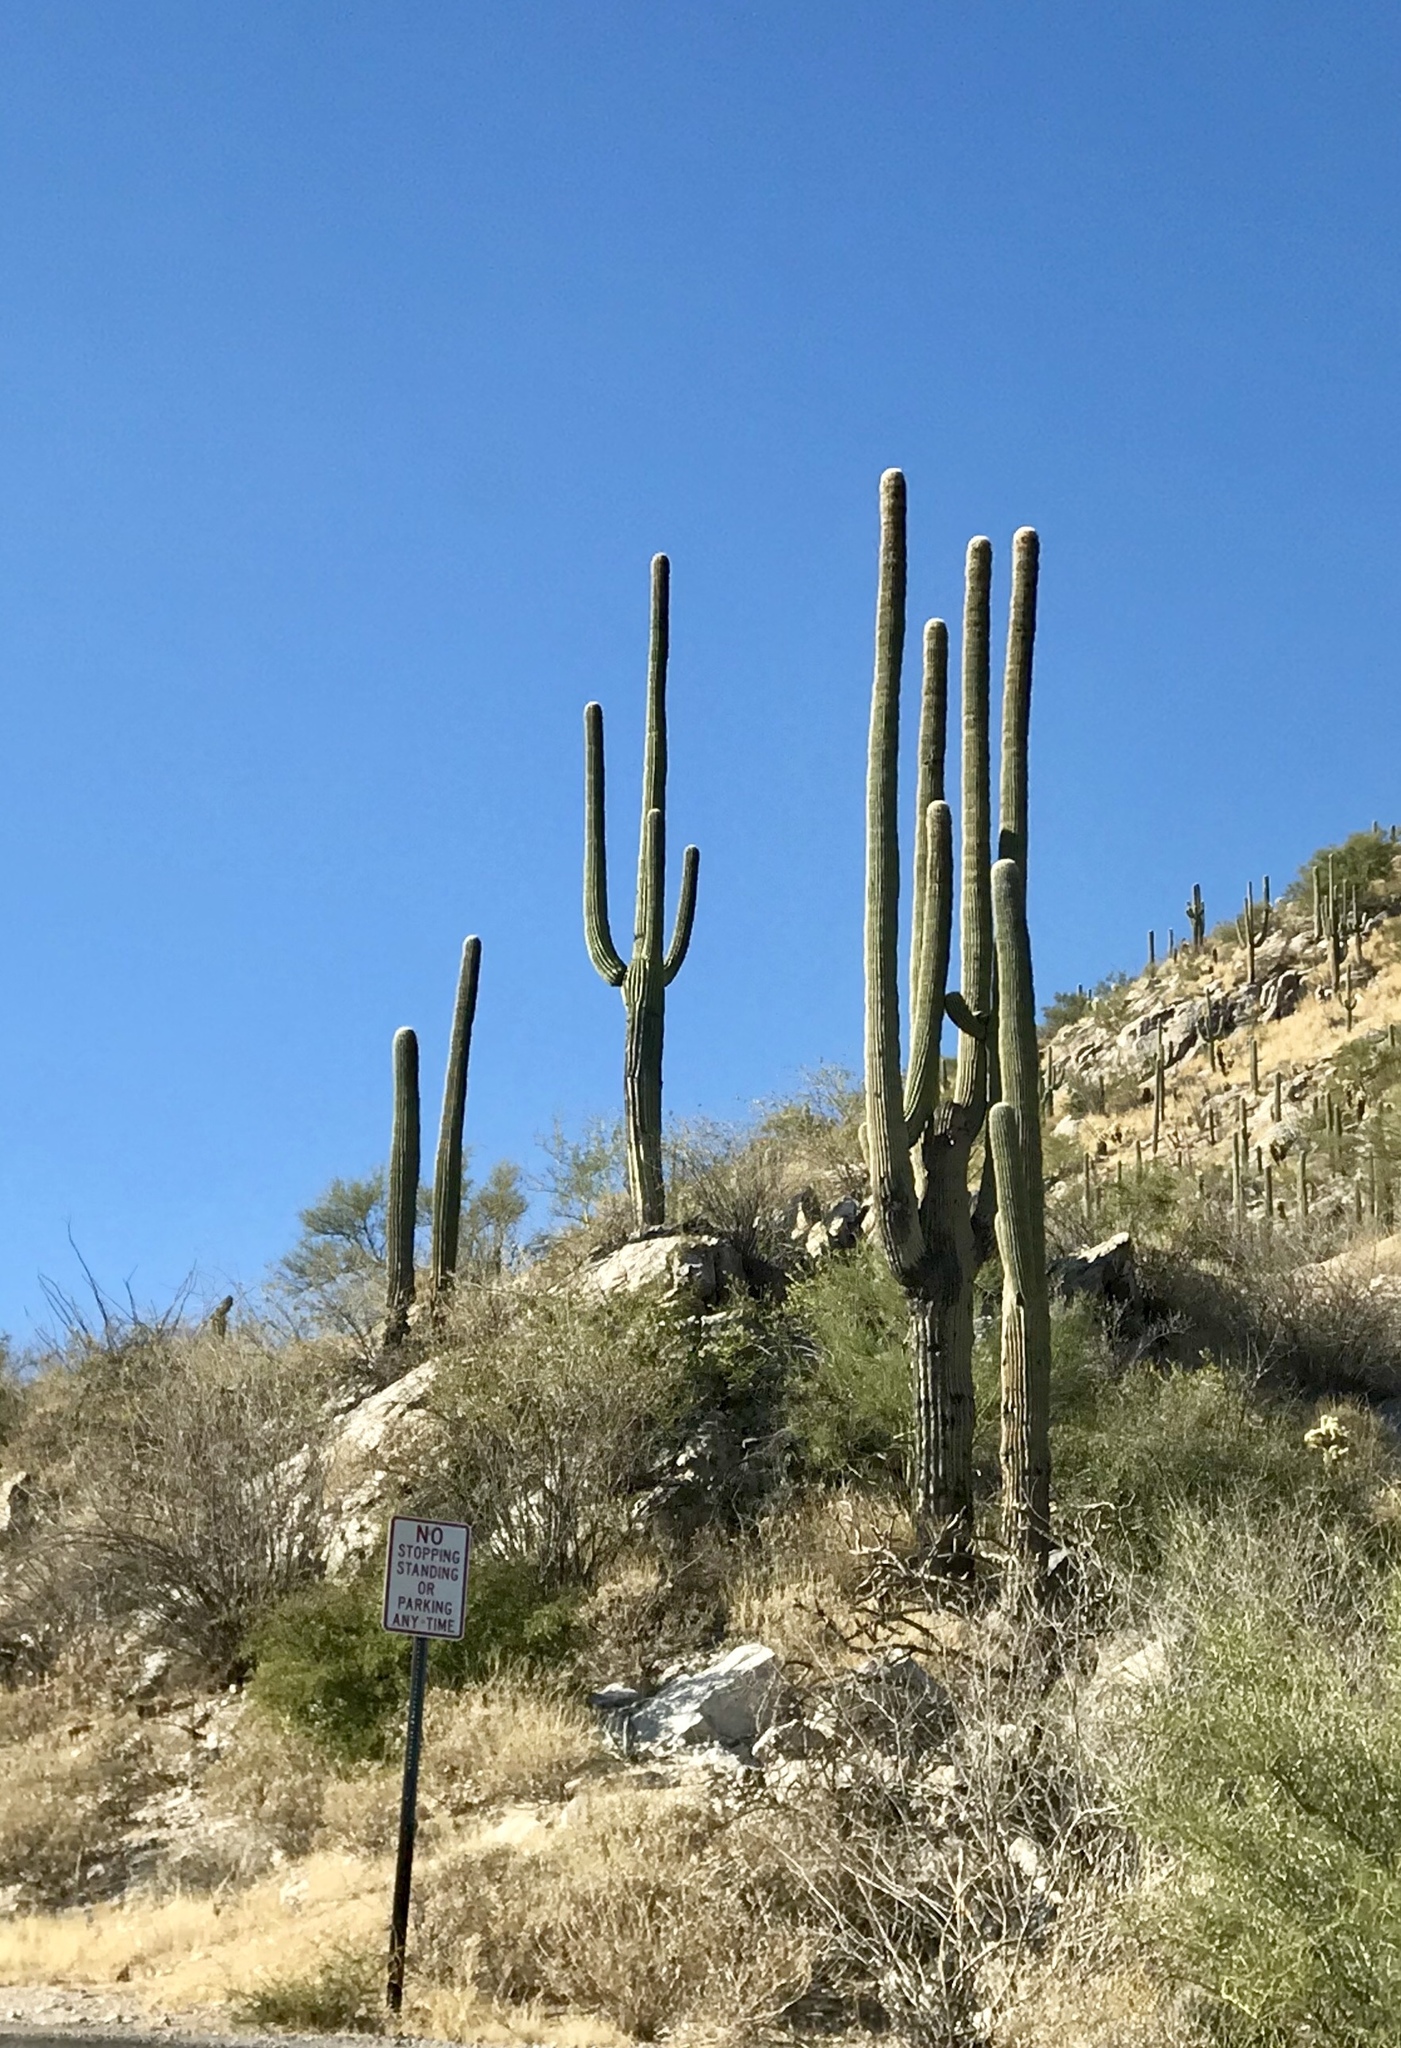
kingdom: Plantae
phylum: Tracheophyta
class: Magnoliopsida
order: Caryophyllales
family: Cactaceae
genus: Carnegiea
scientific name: Carnegiea gigantea
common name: Saguaro
